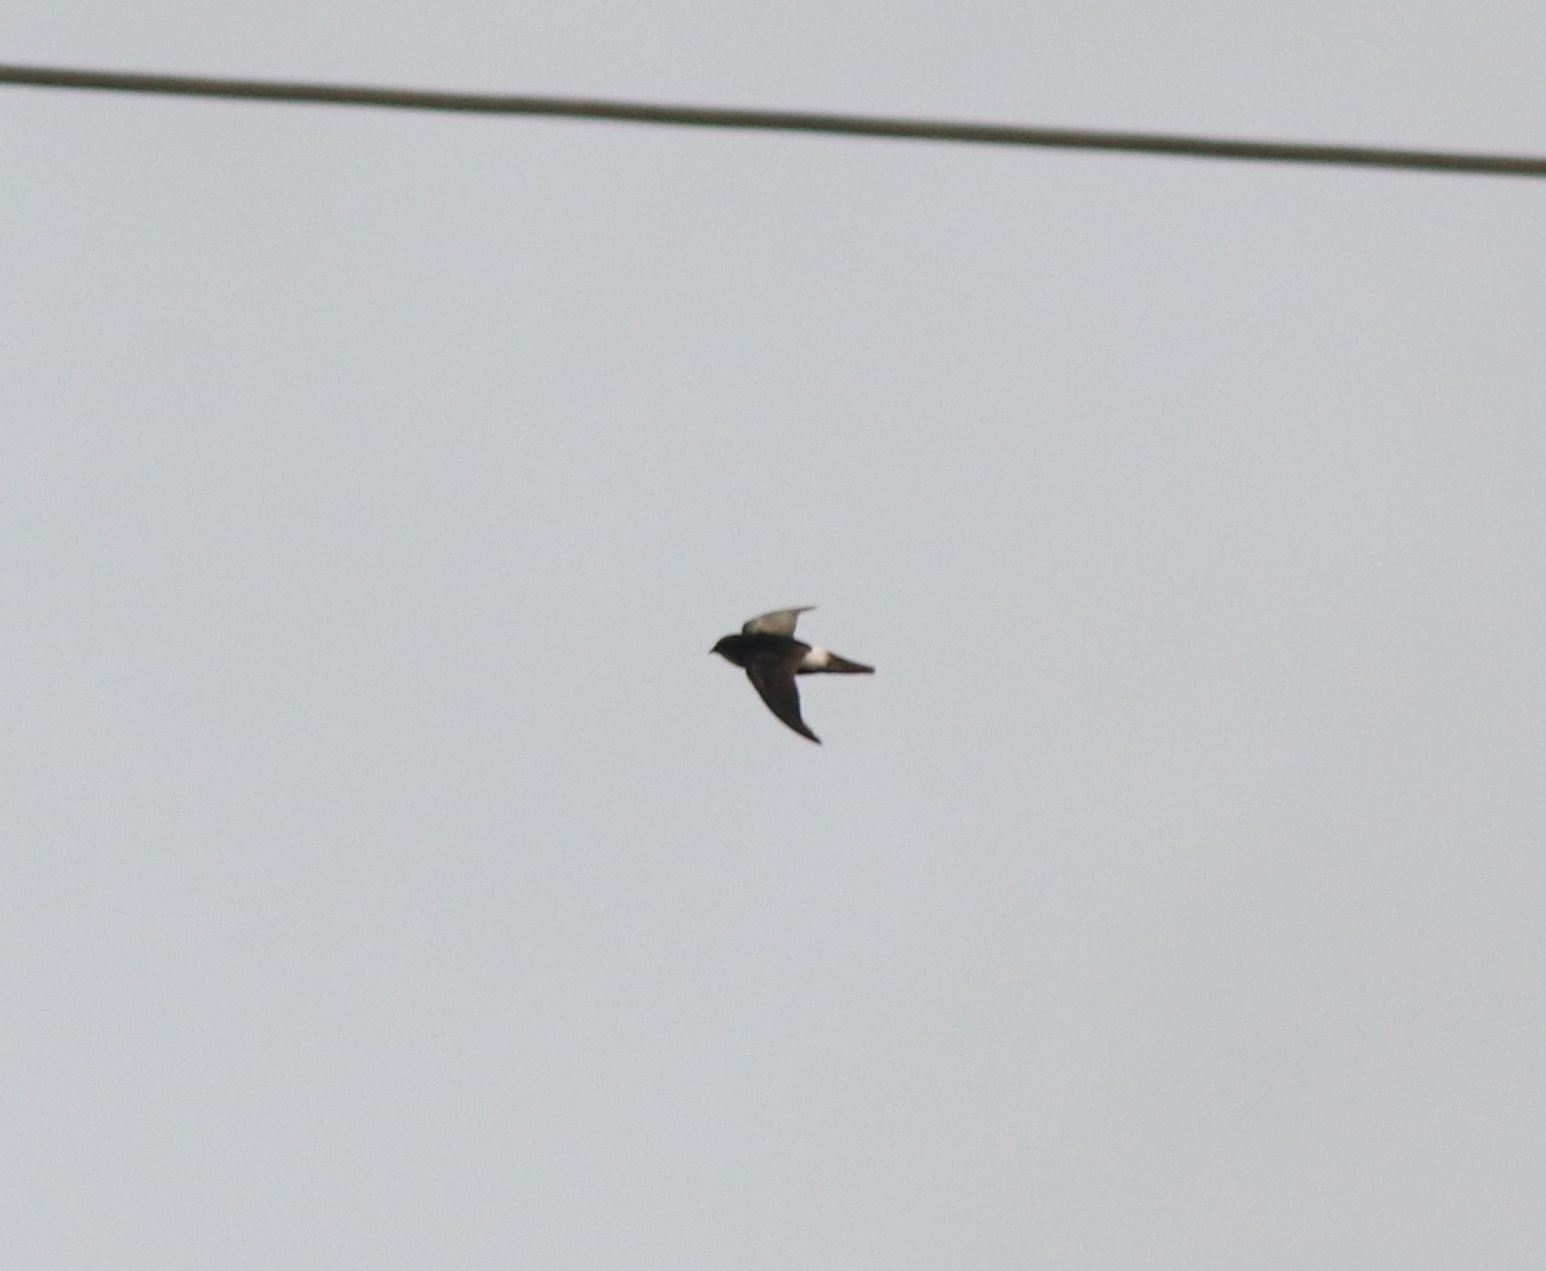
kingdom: Animalia
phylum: Chordata
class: Aves
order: Apodiformes
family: Apodidae
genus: Apus
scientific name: Apus affinis
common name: Little swift
